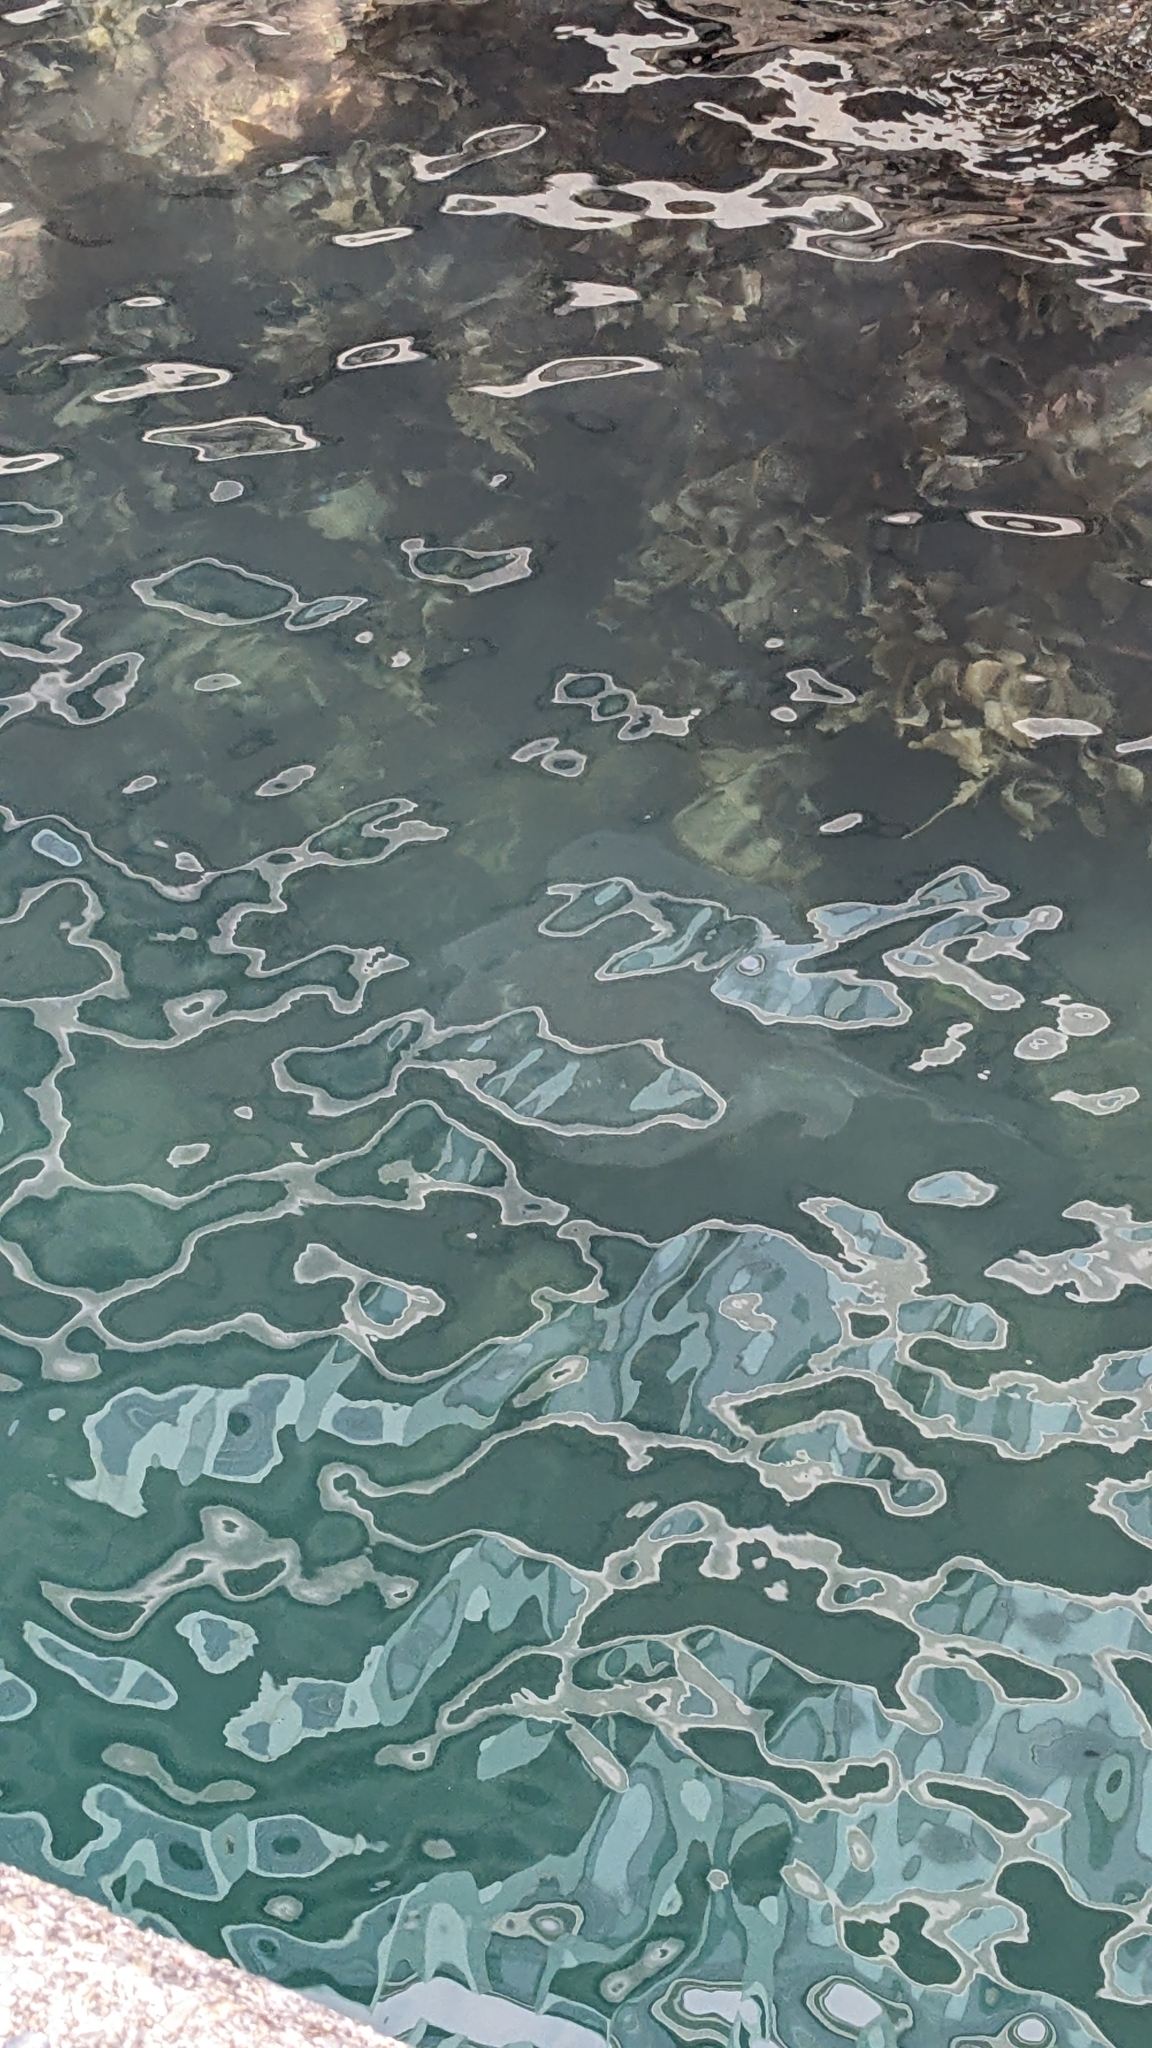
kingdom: Animalia
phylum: Chordata
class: Elasmobranchii
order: Myliobatiformes
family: Dasyatidae
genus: Bathytoshia
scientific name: Bathytoshia brevicaudata
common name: Short-tail stingray
